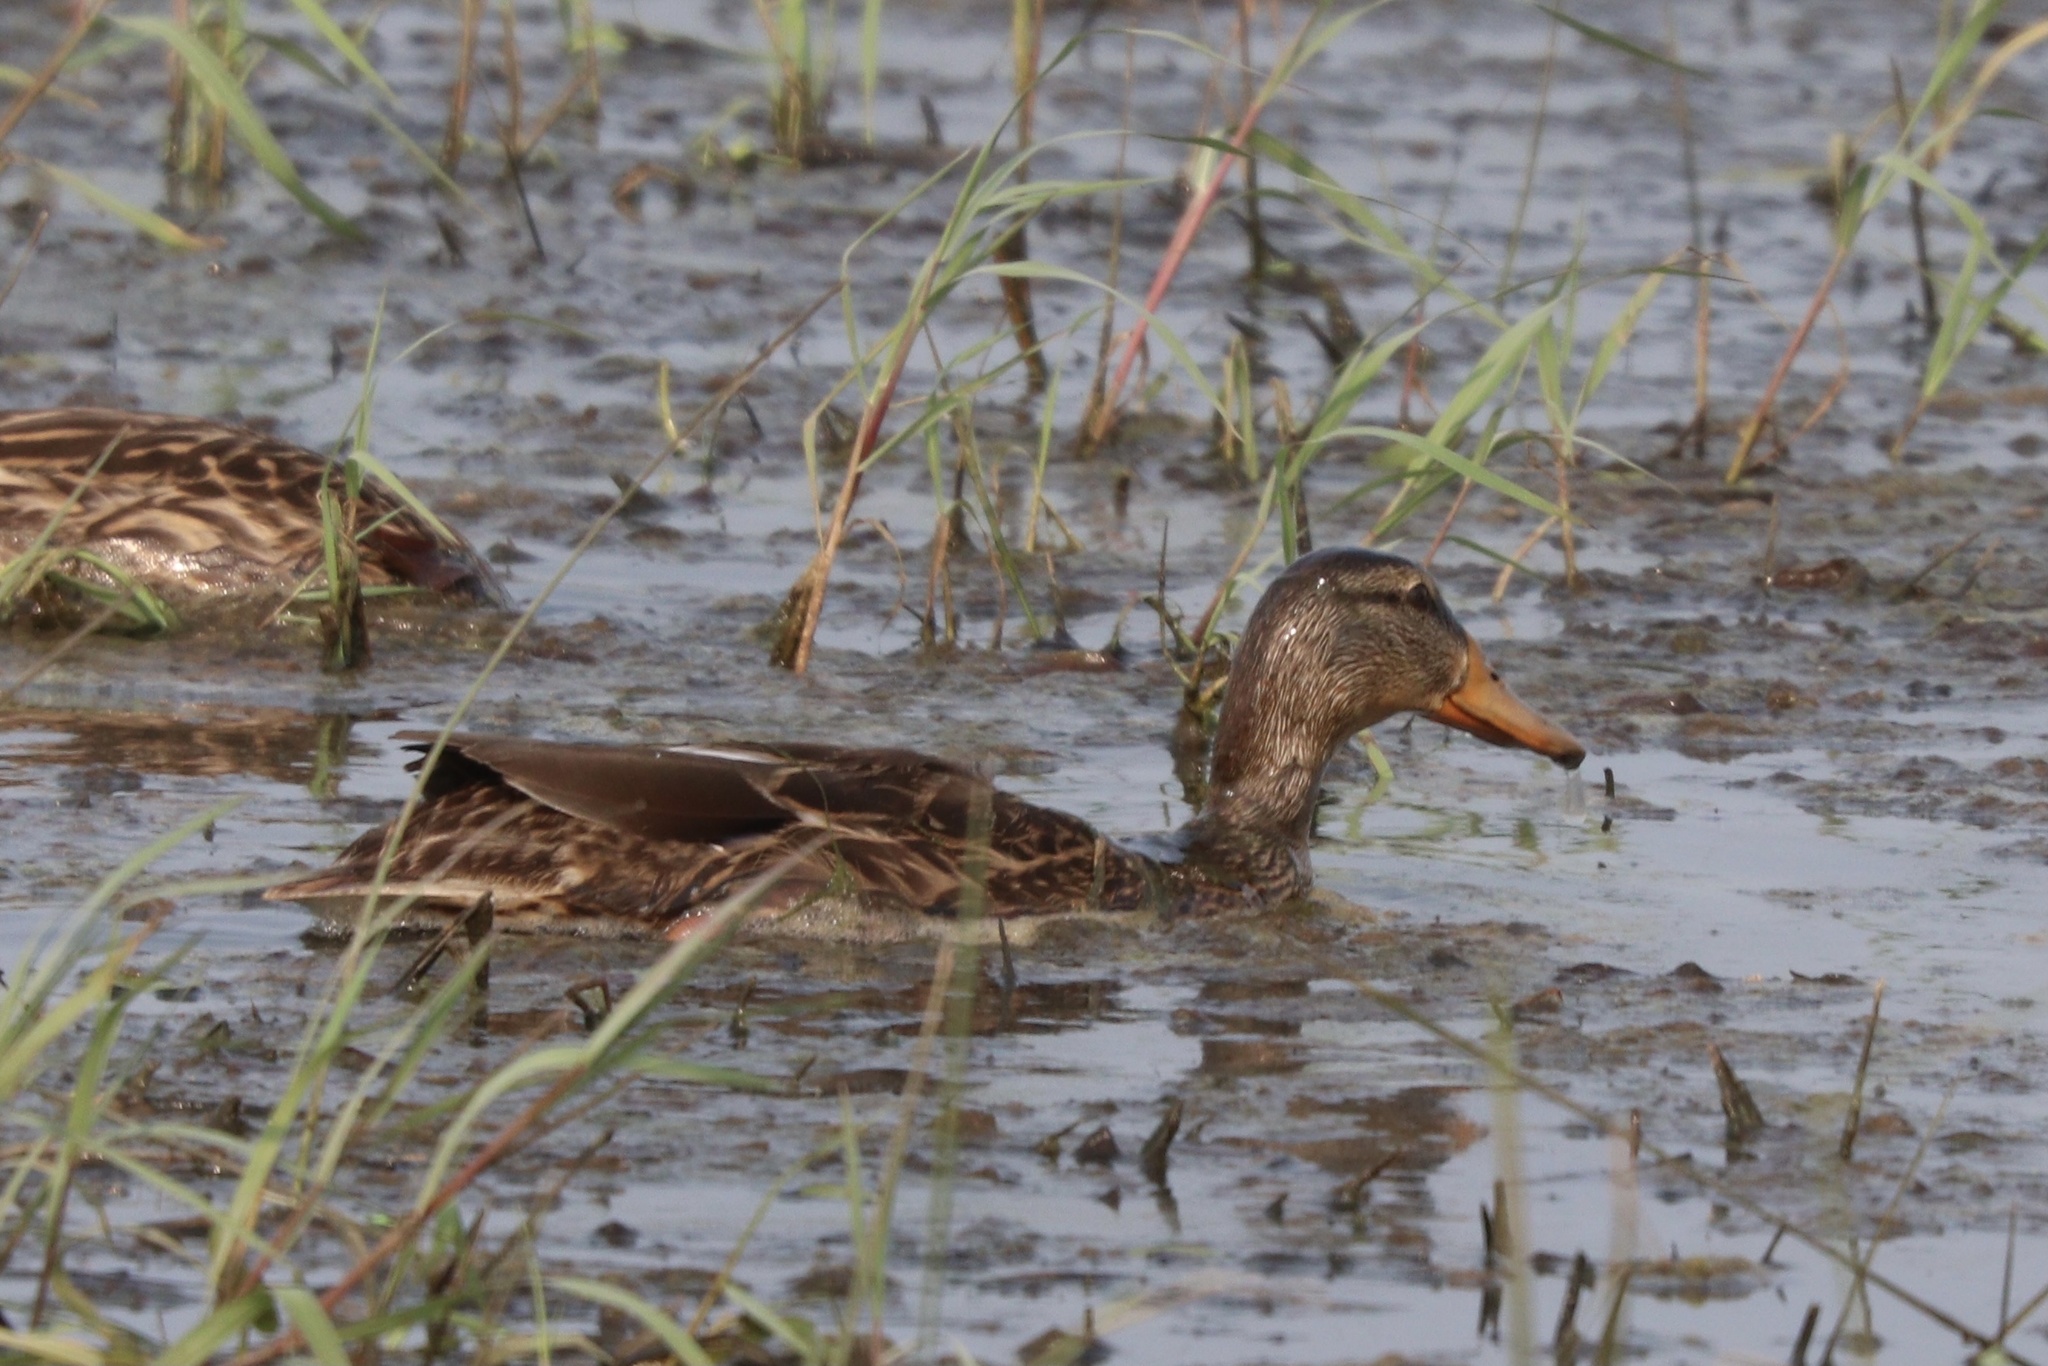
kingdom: Animalia
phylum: Chordata
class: Aves
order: Anseriformes
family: Anatidae
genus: Anas
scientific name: Anas platyrhynchos
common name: Mallard
